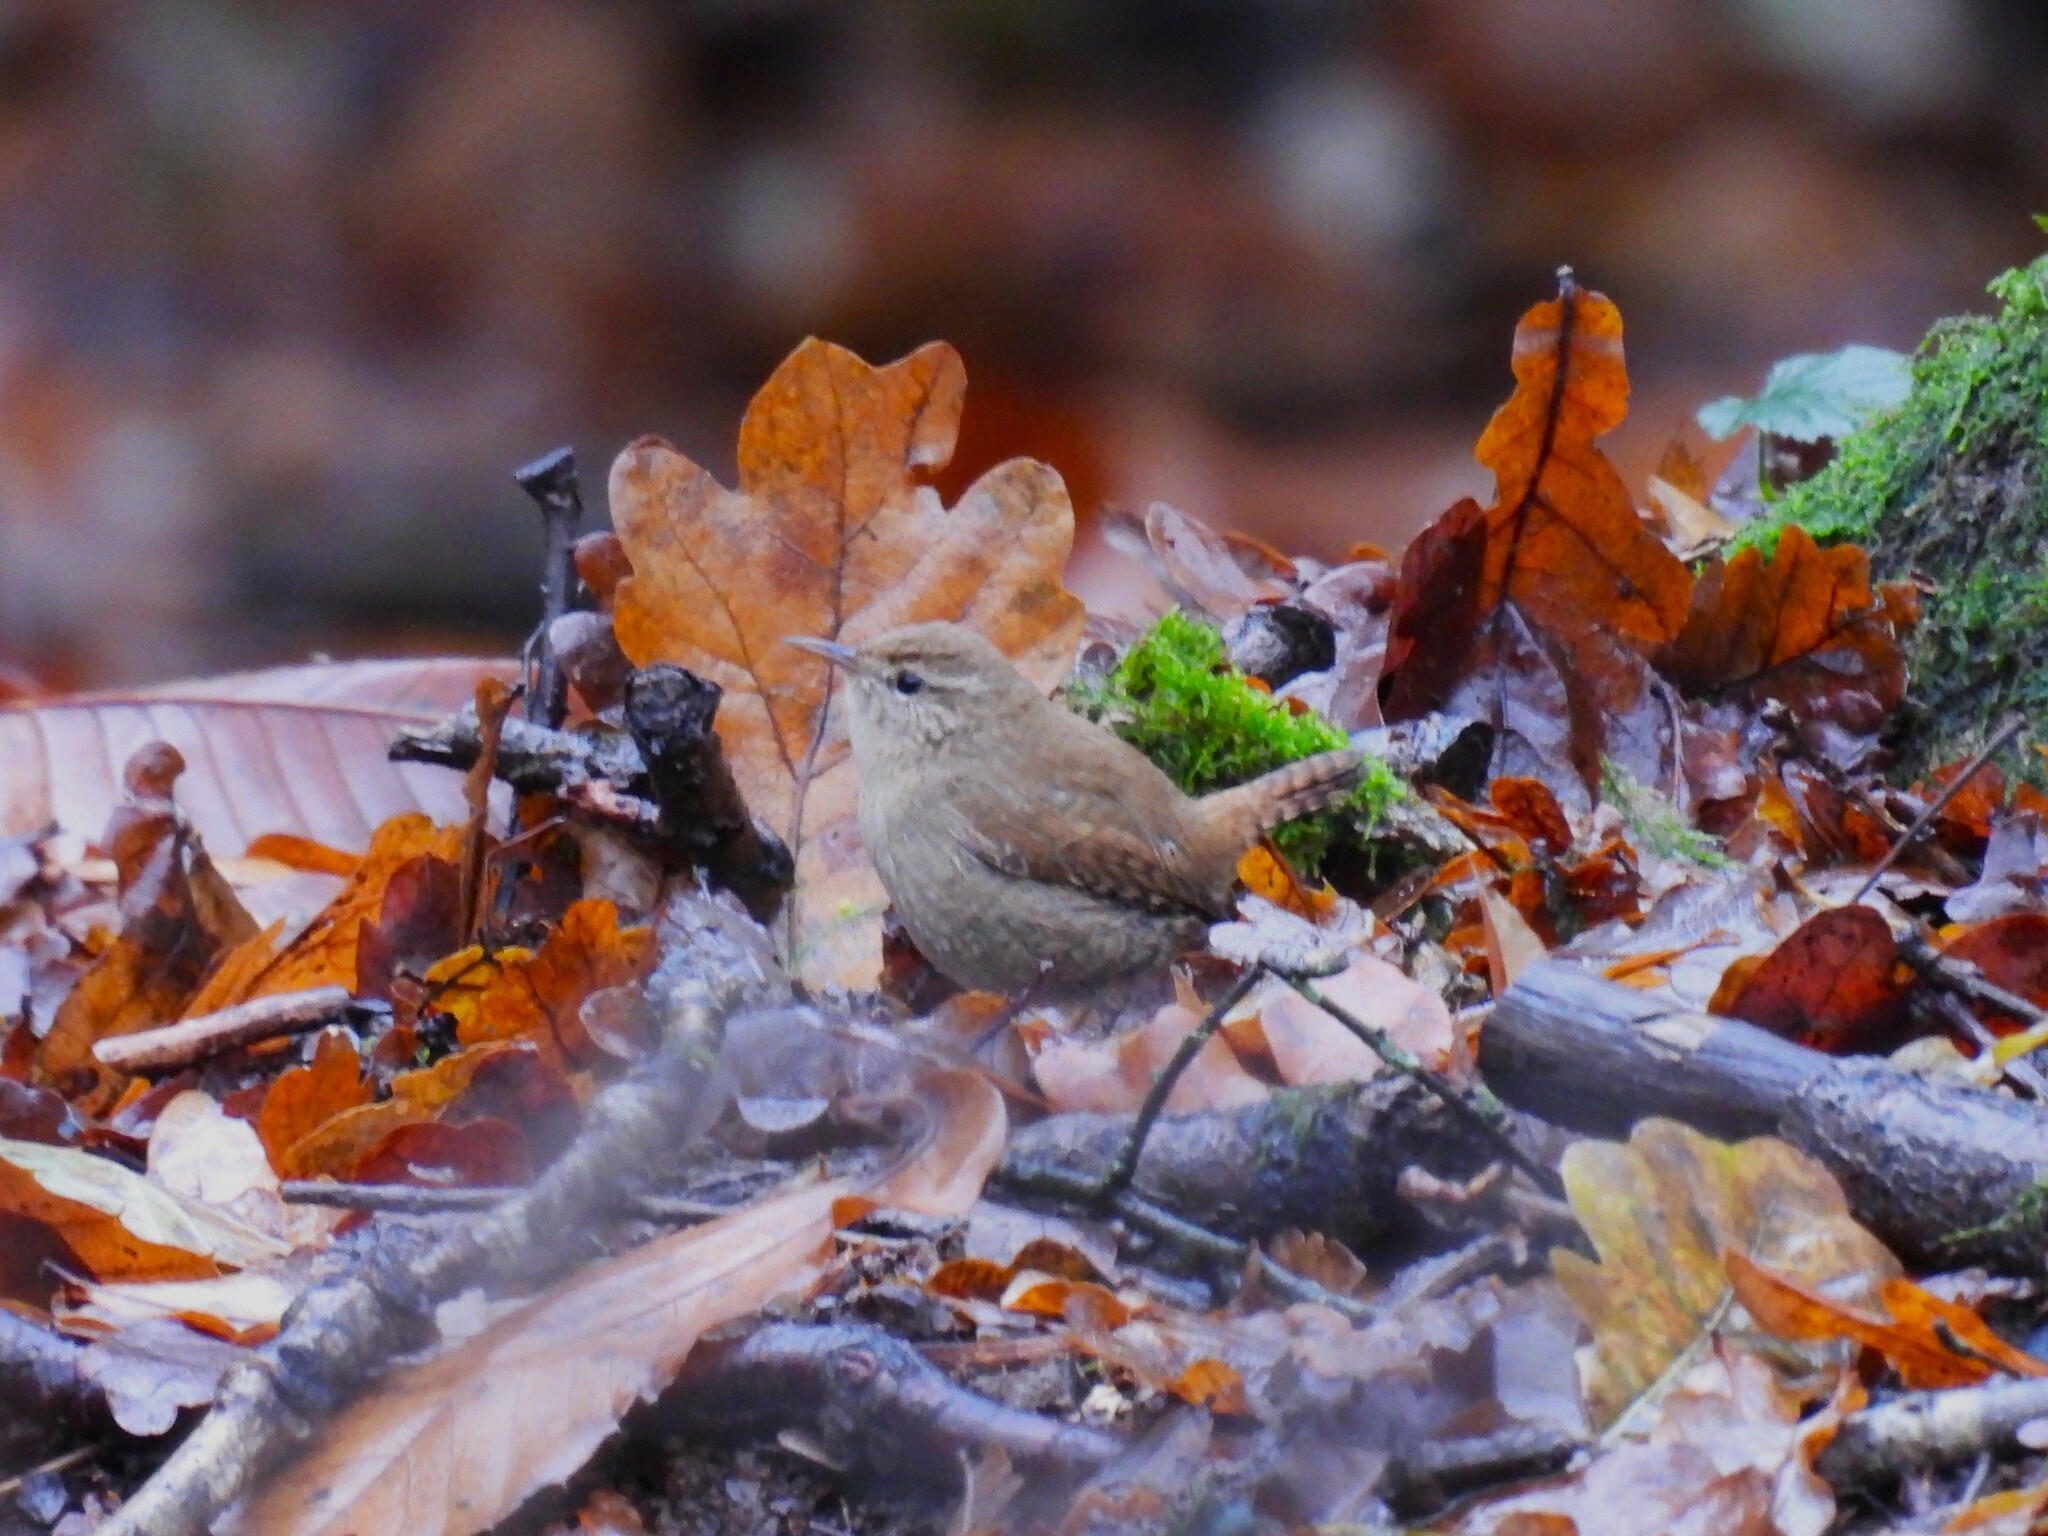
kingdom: Animalia
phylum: Chordata
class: Aves
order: Passeriformes
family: Troglodytidae
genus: Troglodytes
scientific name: Troglodytes troglodytes
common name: Eurasian wren
